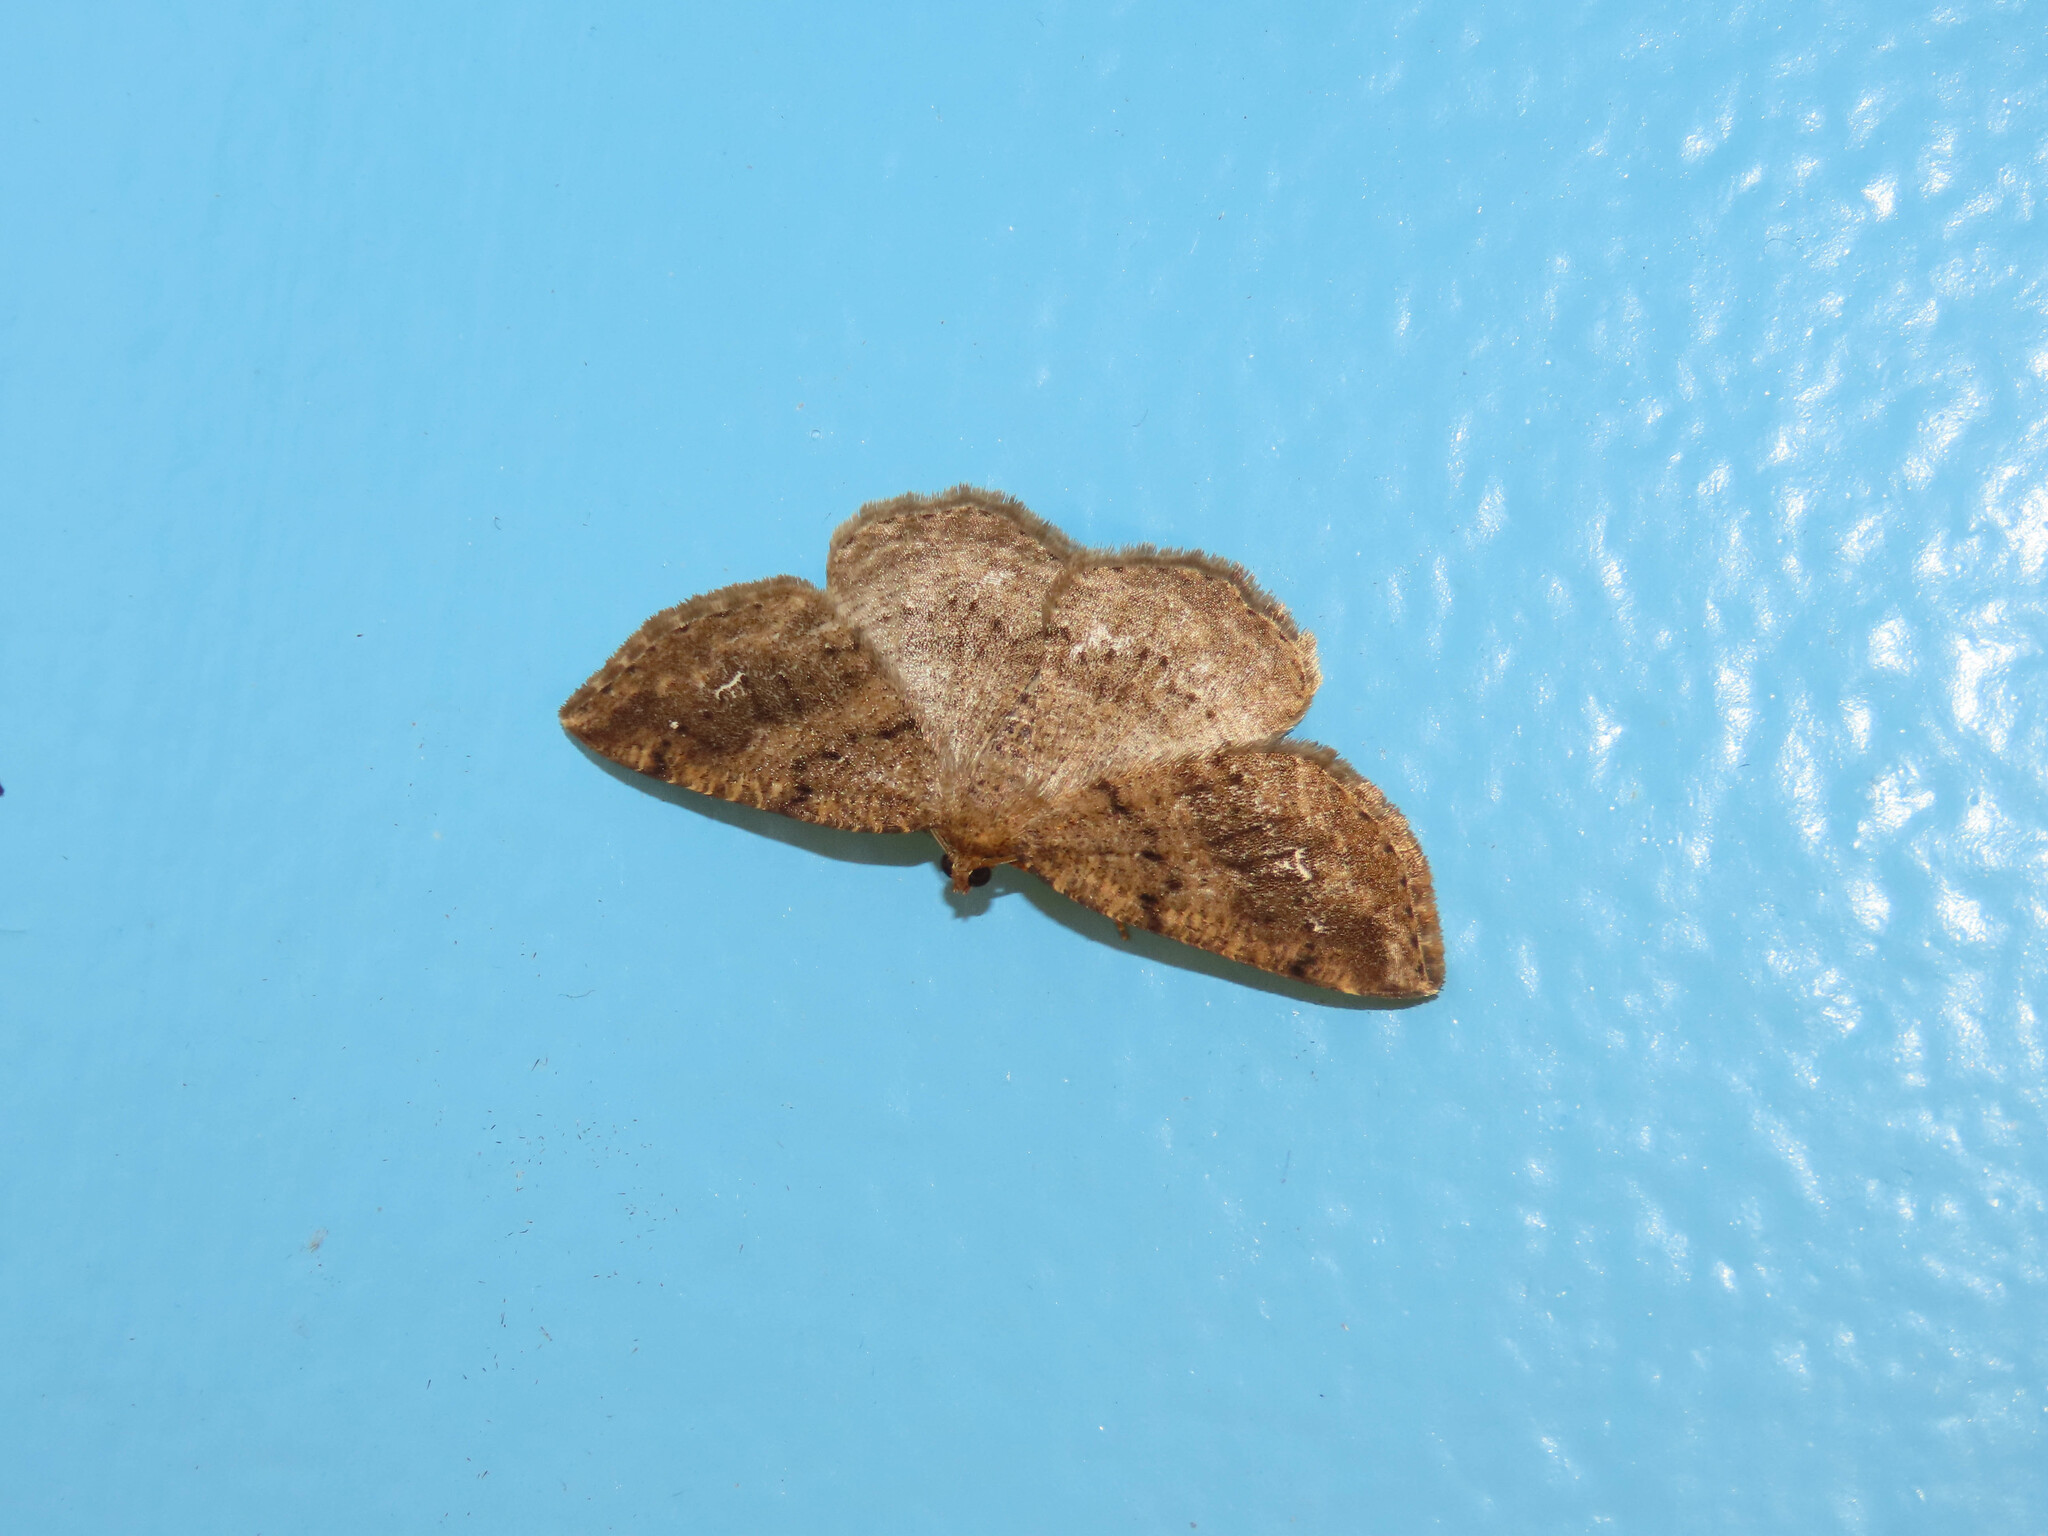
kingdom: Animalia
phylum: Arthropoda
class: Insecta
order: Lepidoptera
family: Geometridae
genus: Homochlodes
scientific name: Homochlodes fritillaria
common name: Pale homochlodes
